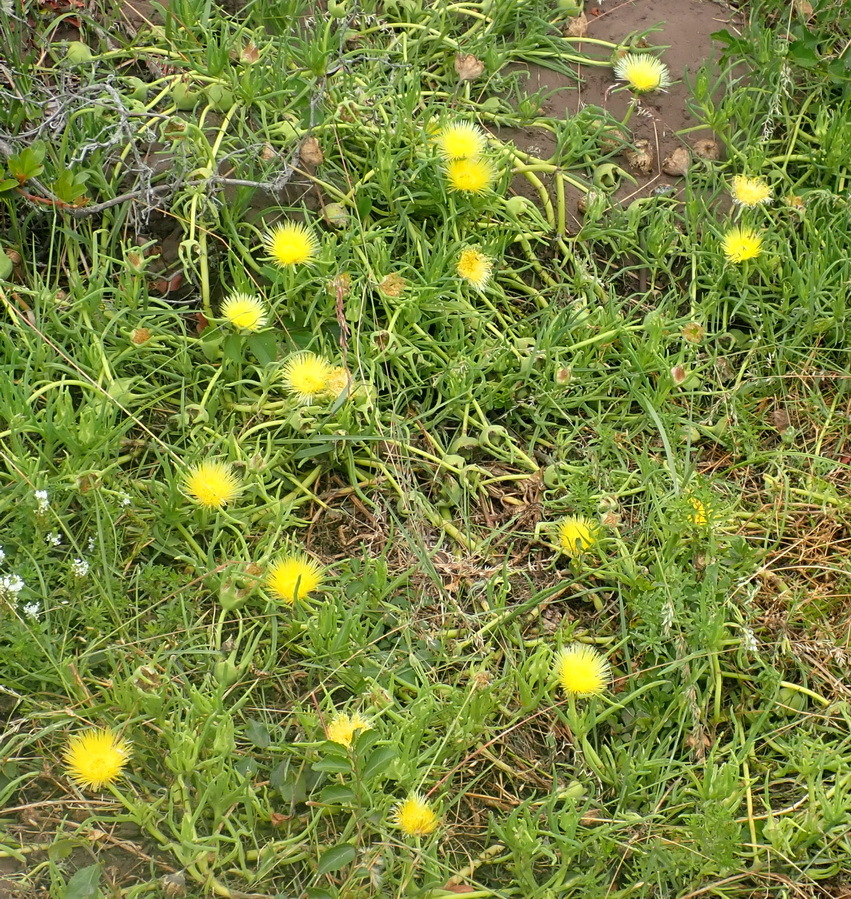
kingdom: Plantae
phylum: Tracheophyta
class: Magnoliopsida
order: Caryophyllales
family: Aizoaceae
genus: Conicosia
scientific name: Conicosia pugioniformis
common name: Narrow-leaved iceplant
